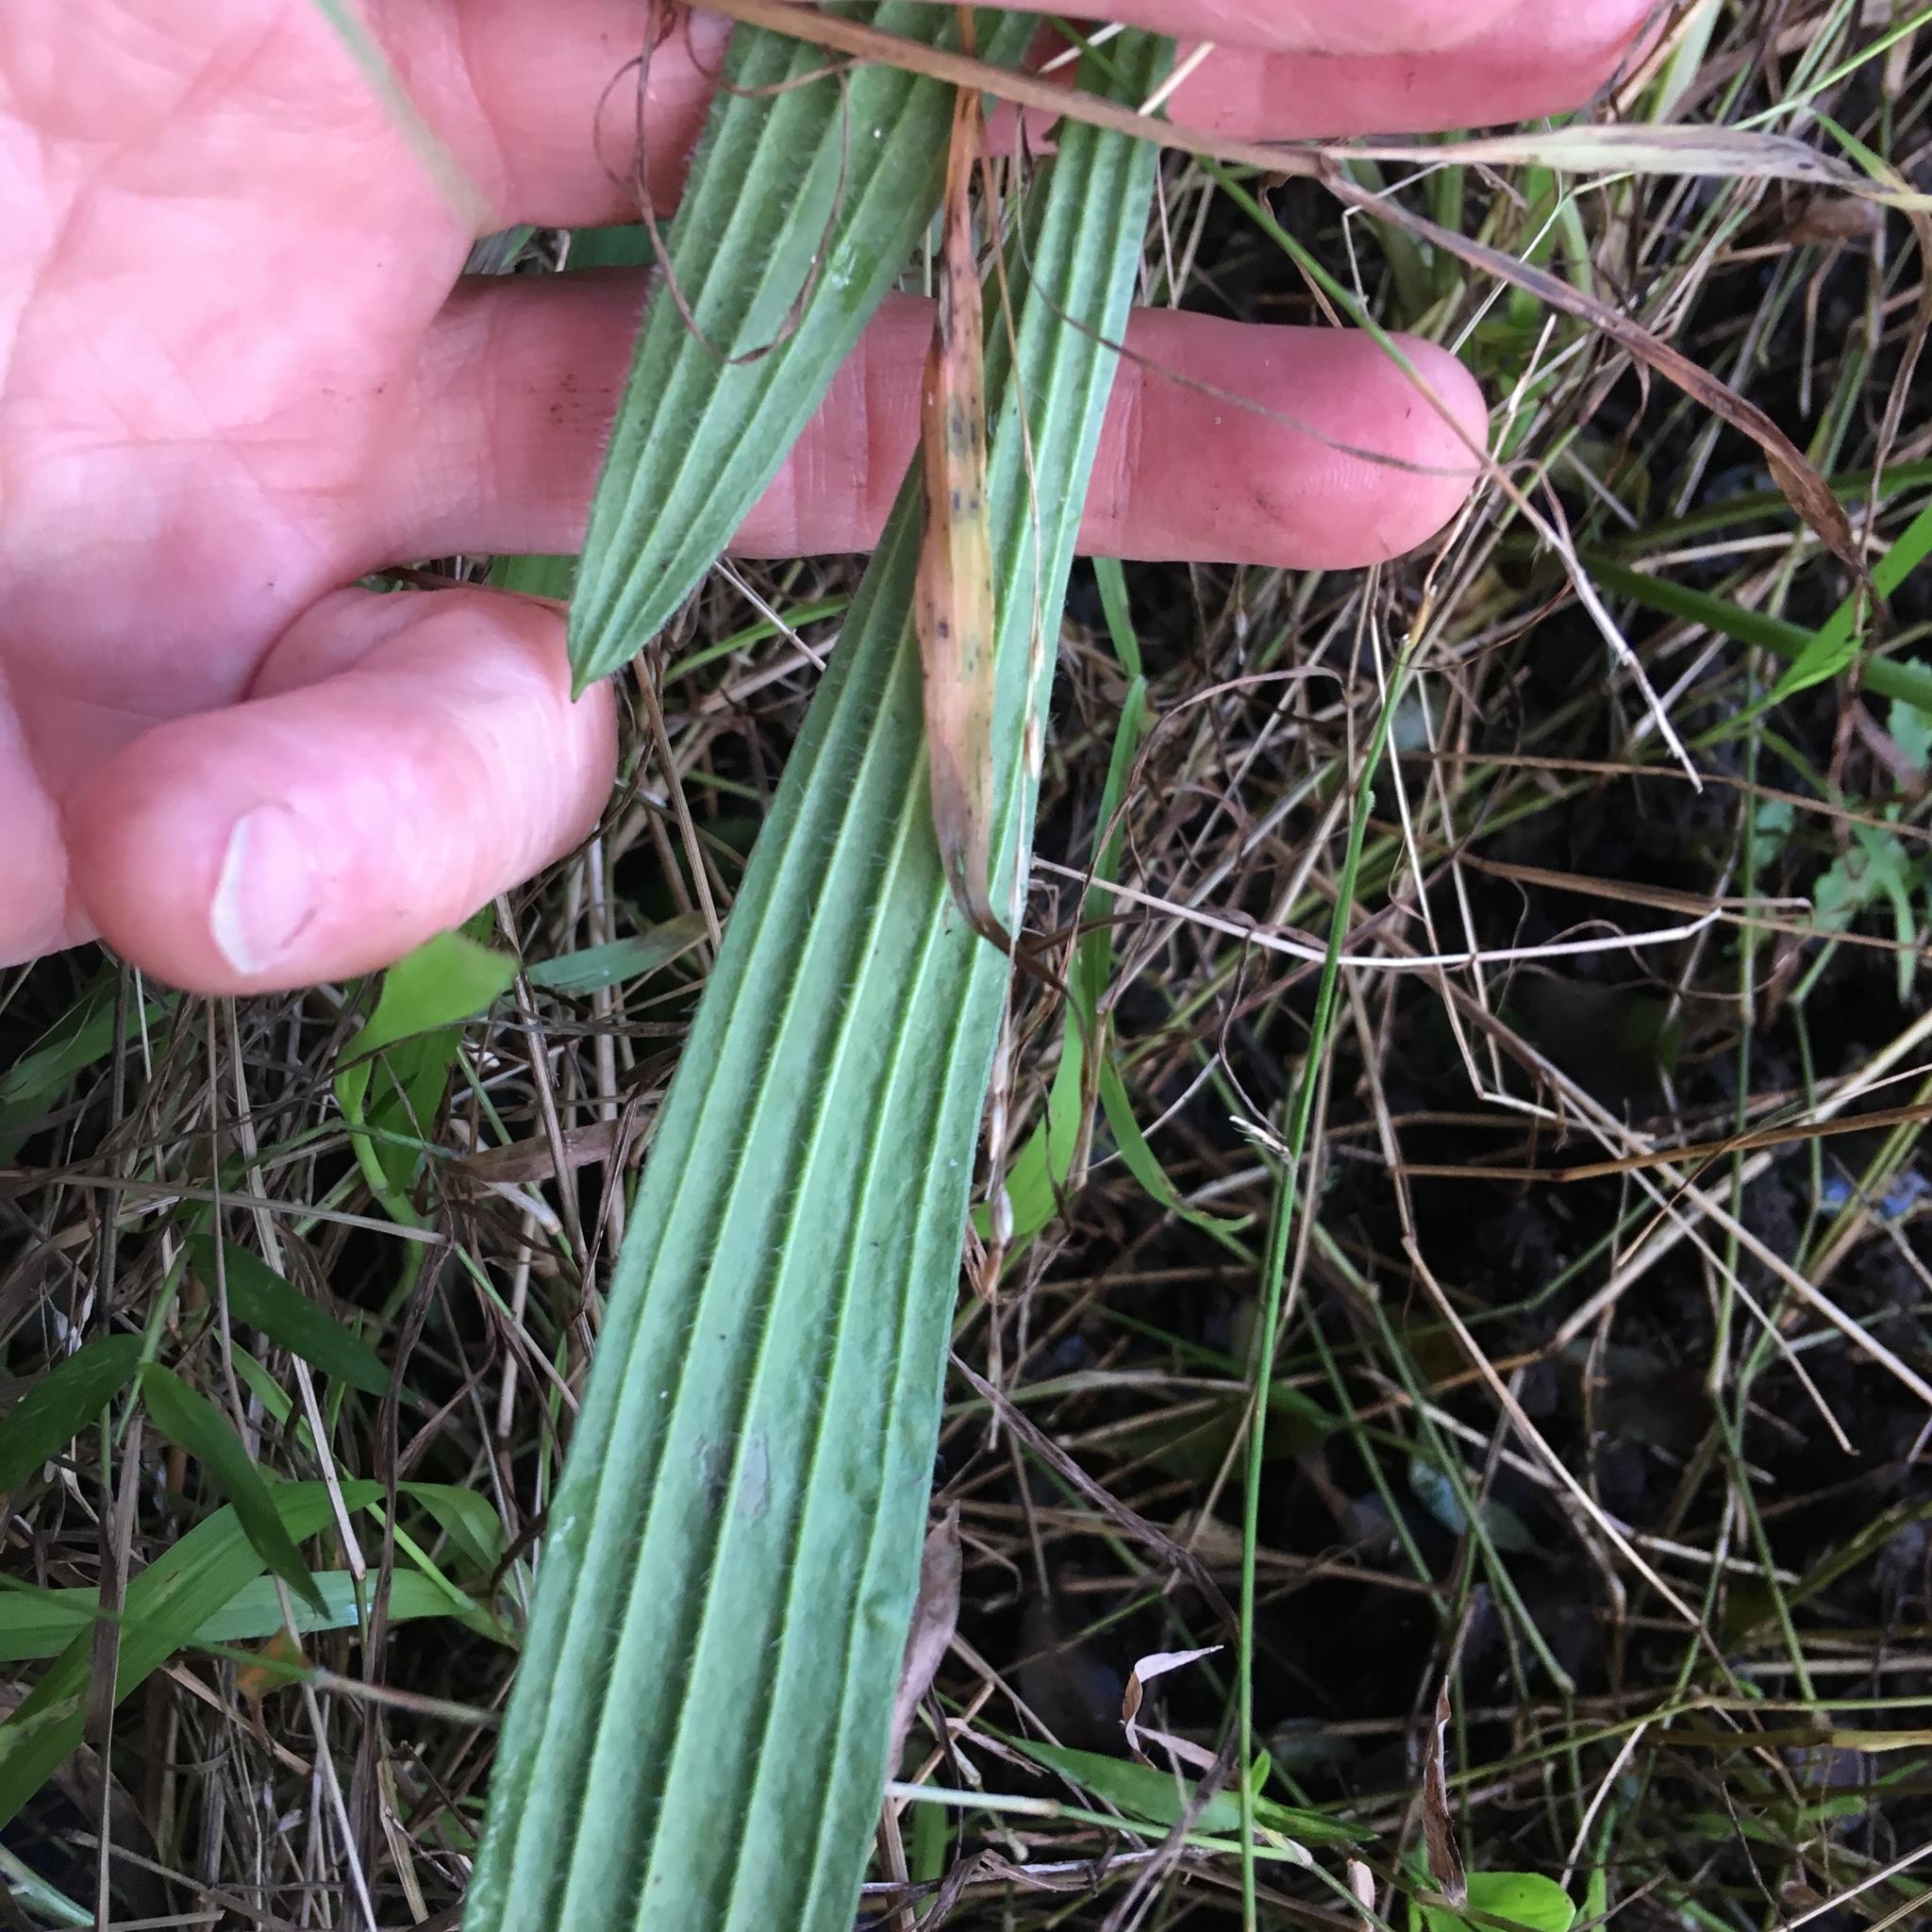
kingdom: Plantae
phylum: Tracheophyta
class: Magnoliopsida
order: Lamiales
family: Plantaginaceae
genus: Plantago
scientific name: Plantago lanceolata
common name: Ribwort plantain
